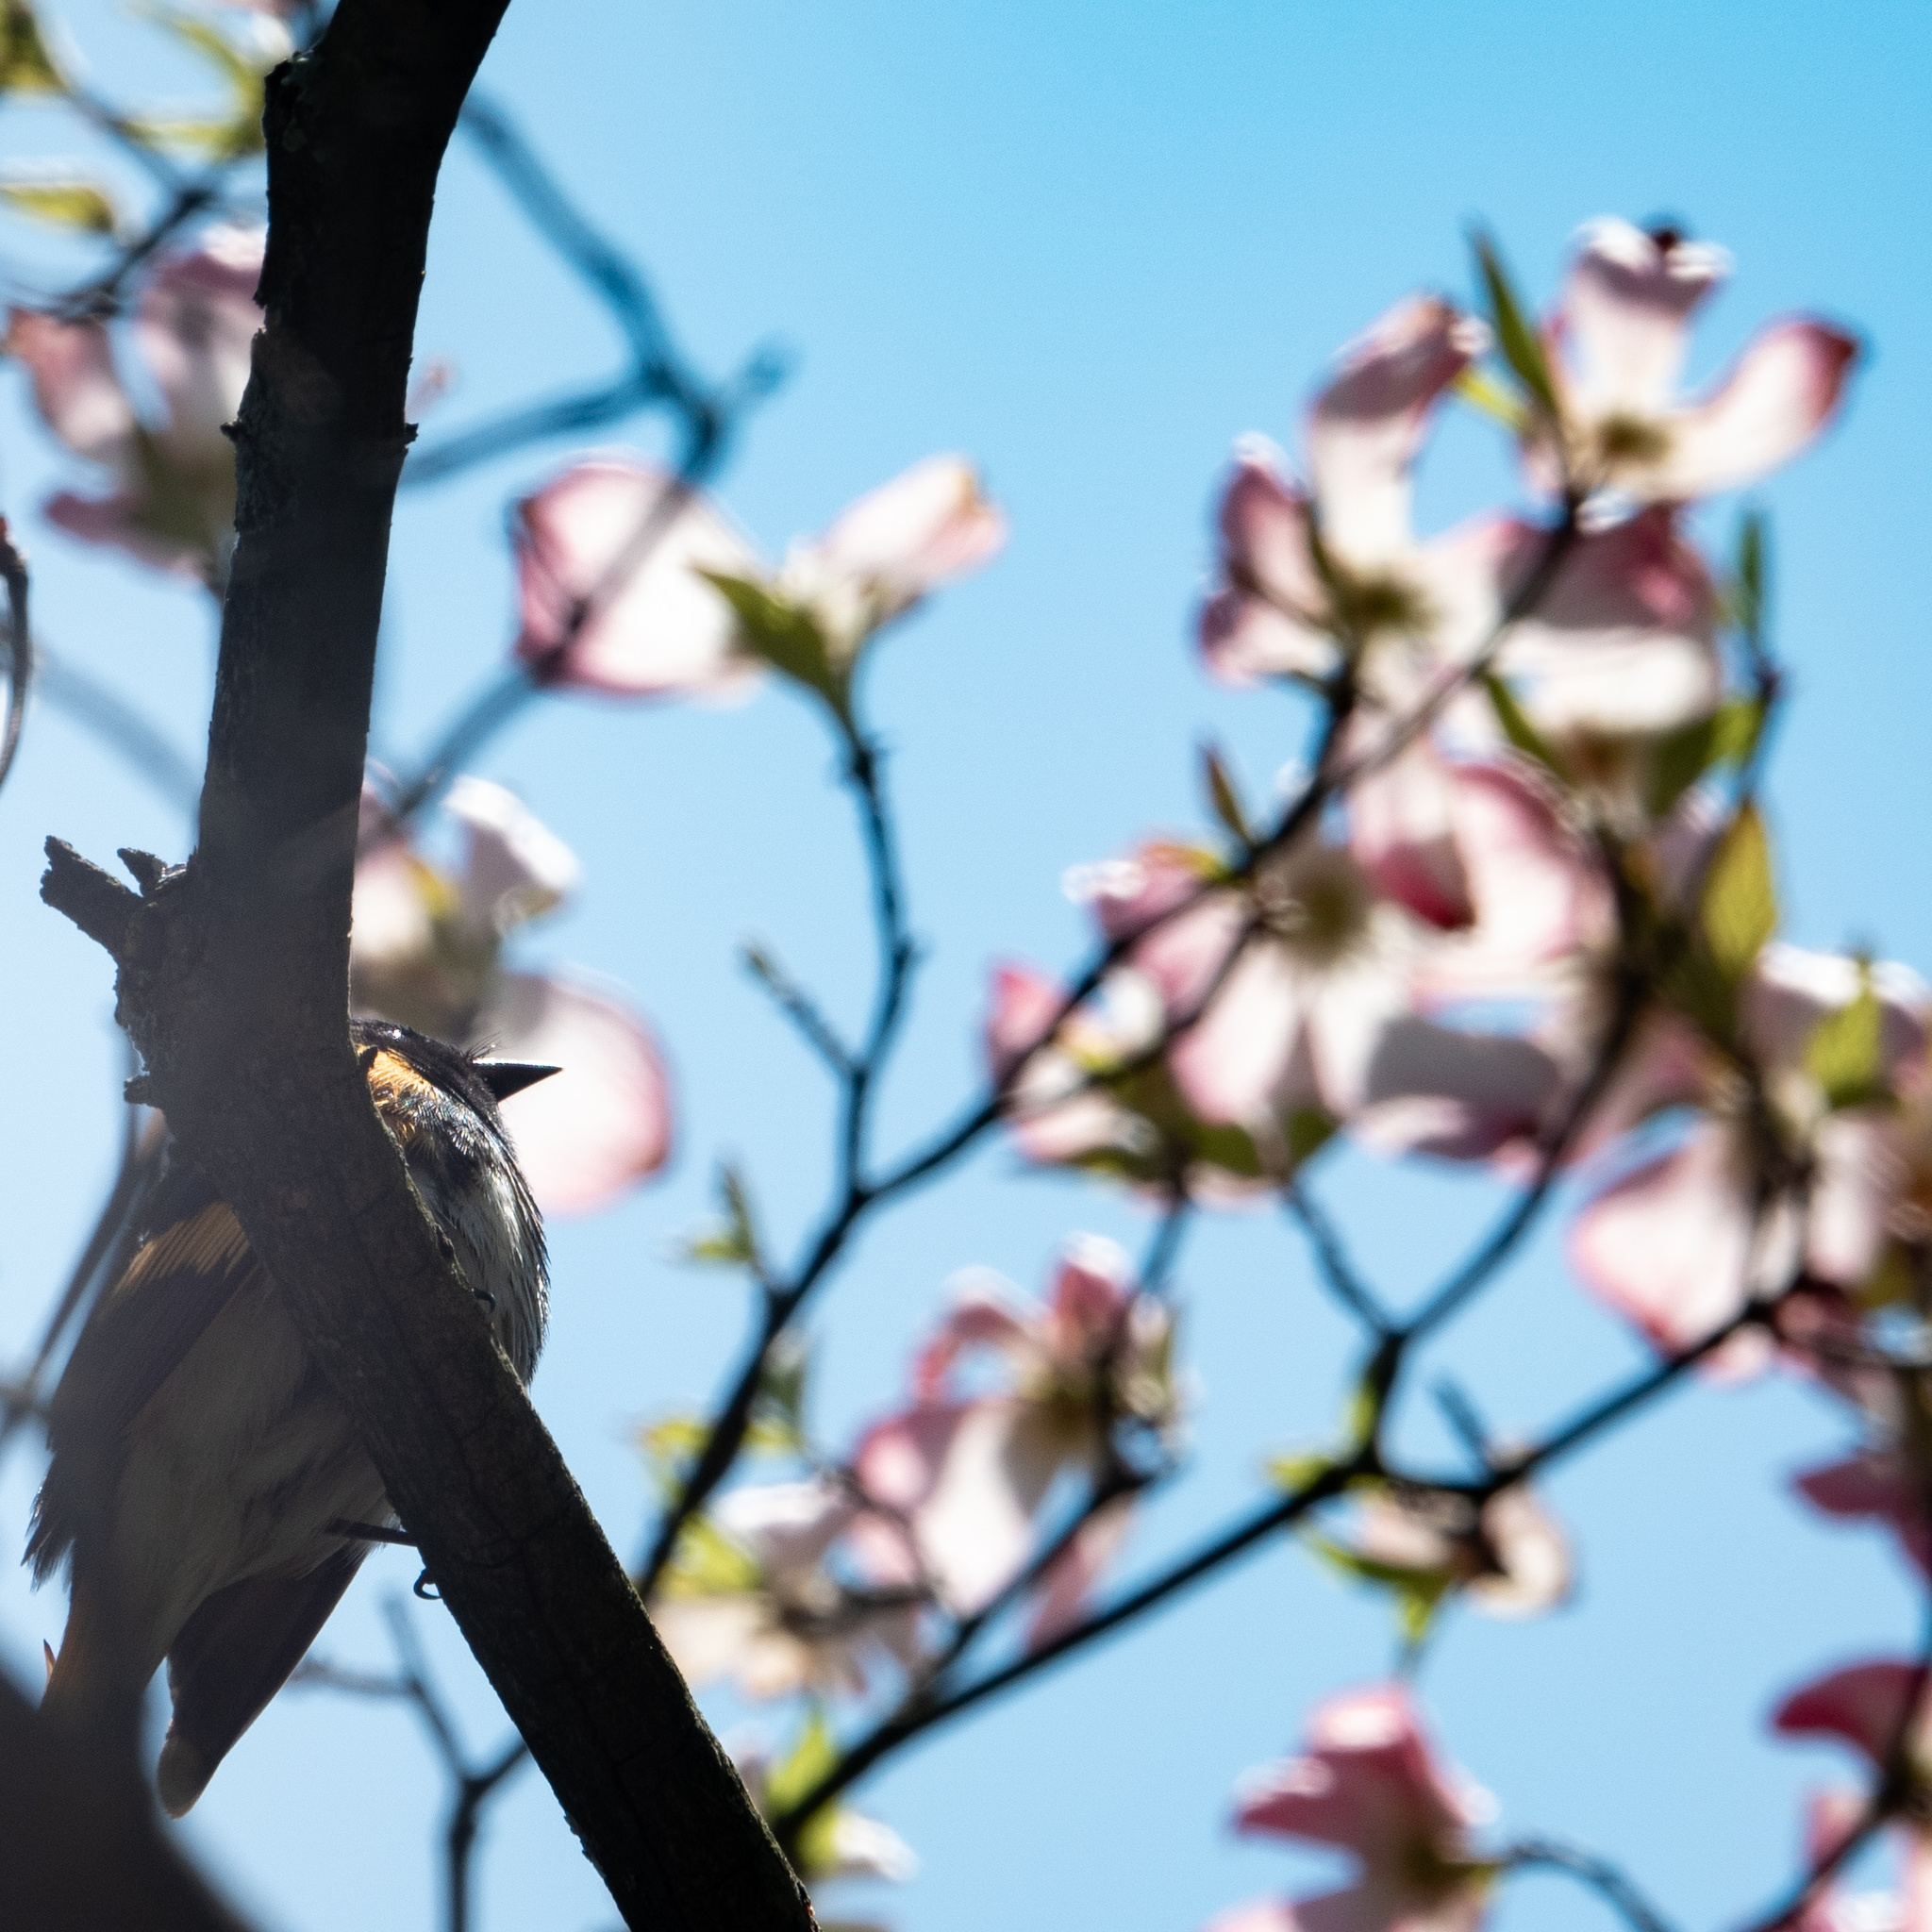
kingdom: Animalia
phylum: Chordata
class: Aves
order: Passeriformes
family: Parulidae
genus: Setophaga
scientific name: Setophaga ruticilla
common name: American redstart
